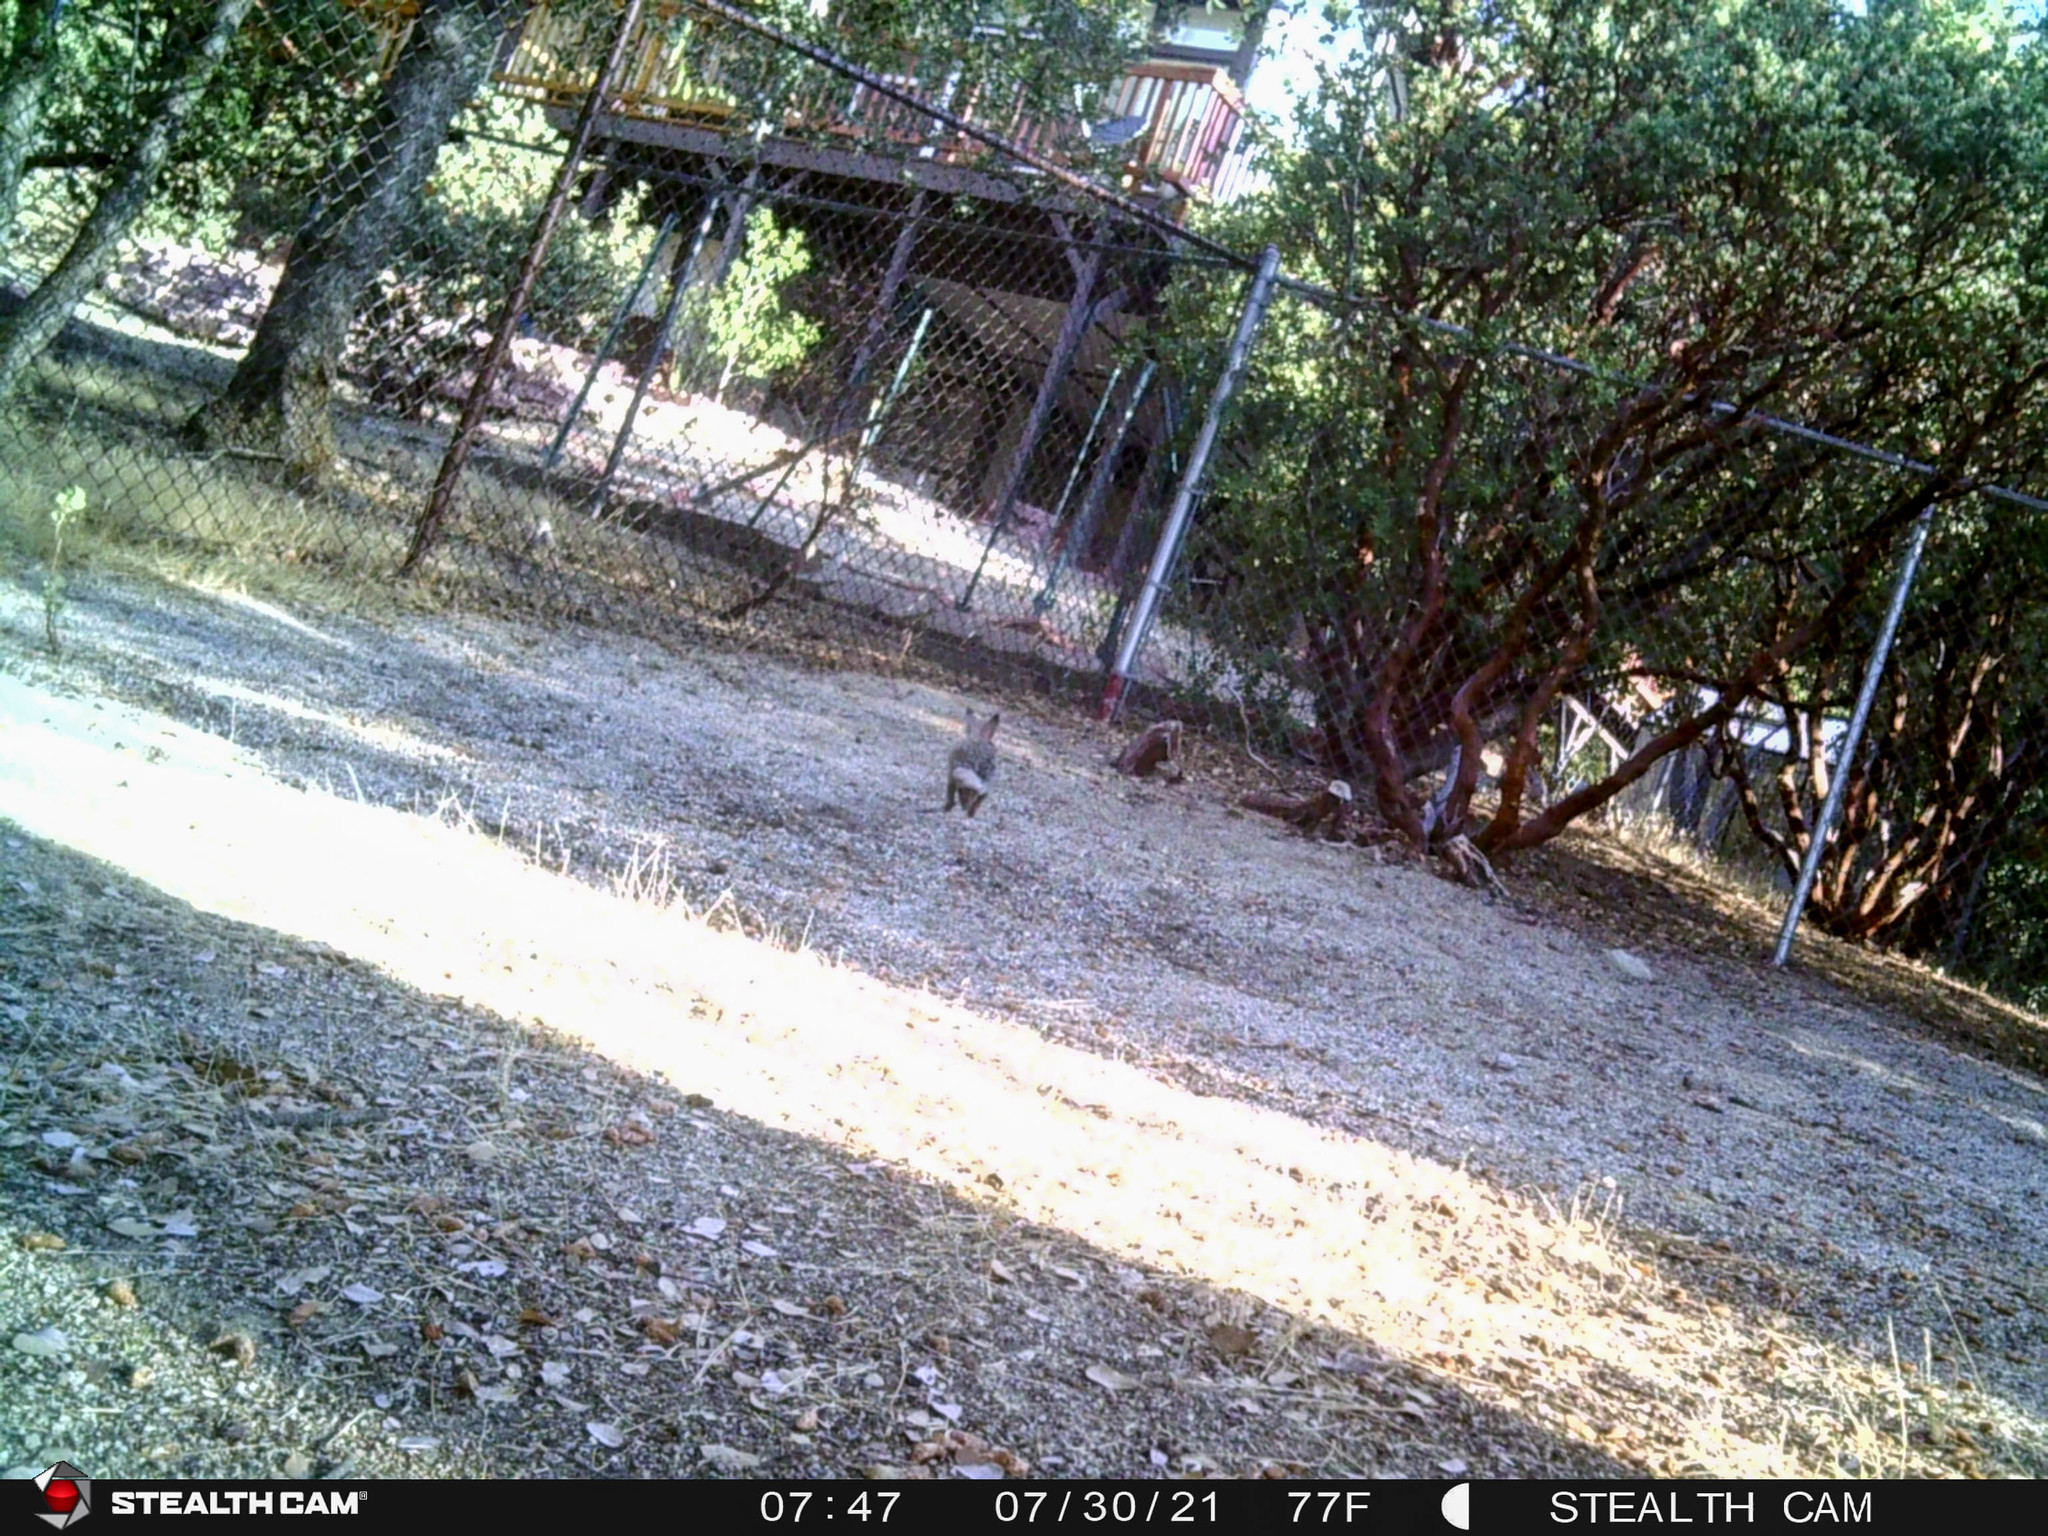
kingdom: Animalia
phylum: Chordata
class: Mammalia
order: Lagomorpha
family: Leporidae
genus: Sylvilagus
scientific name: Sylvilagus audubonii
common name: Desert cottontail
